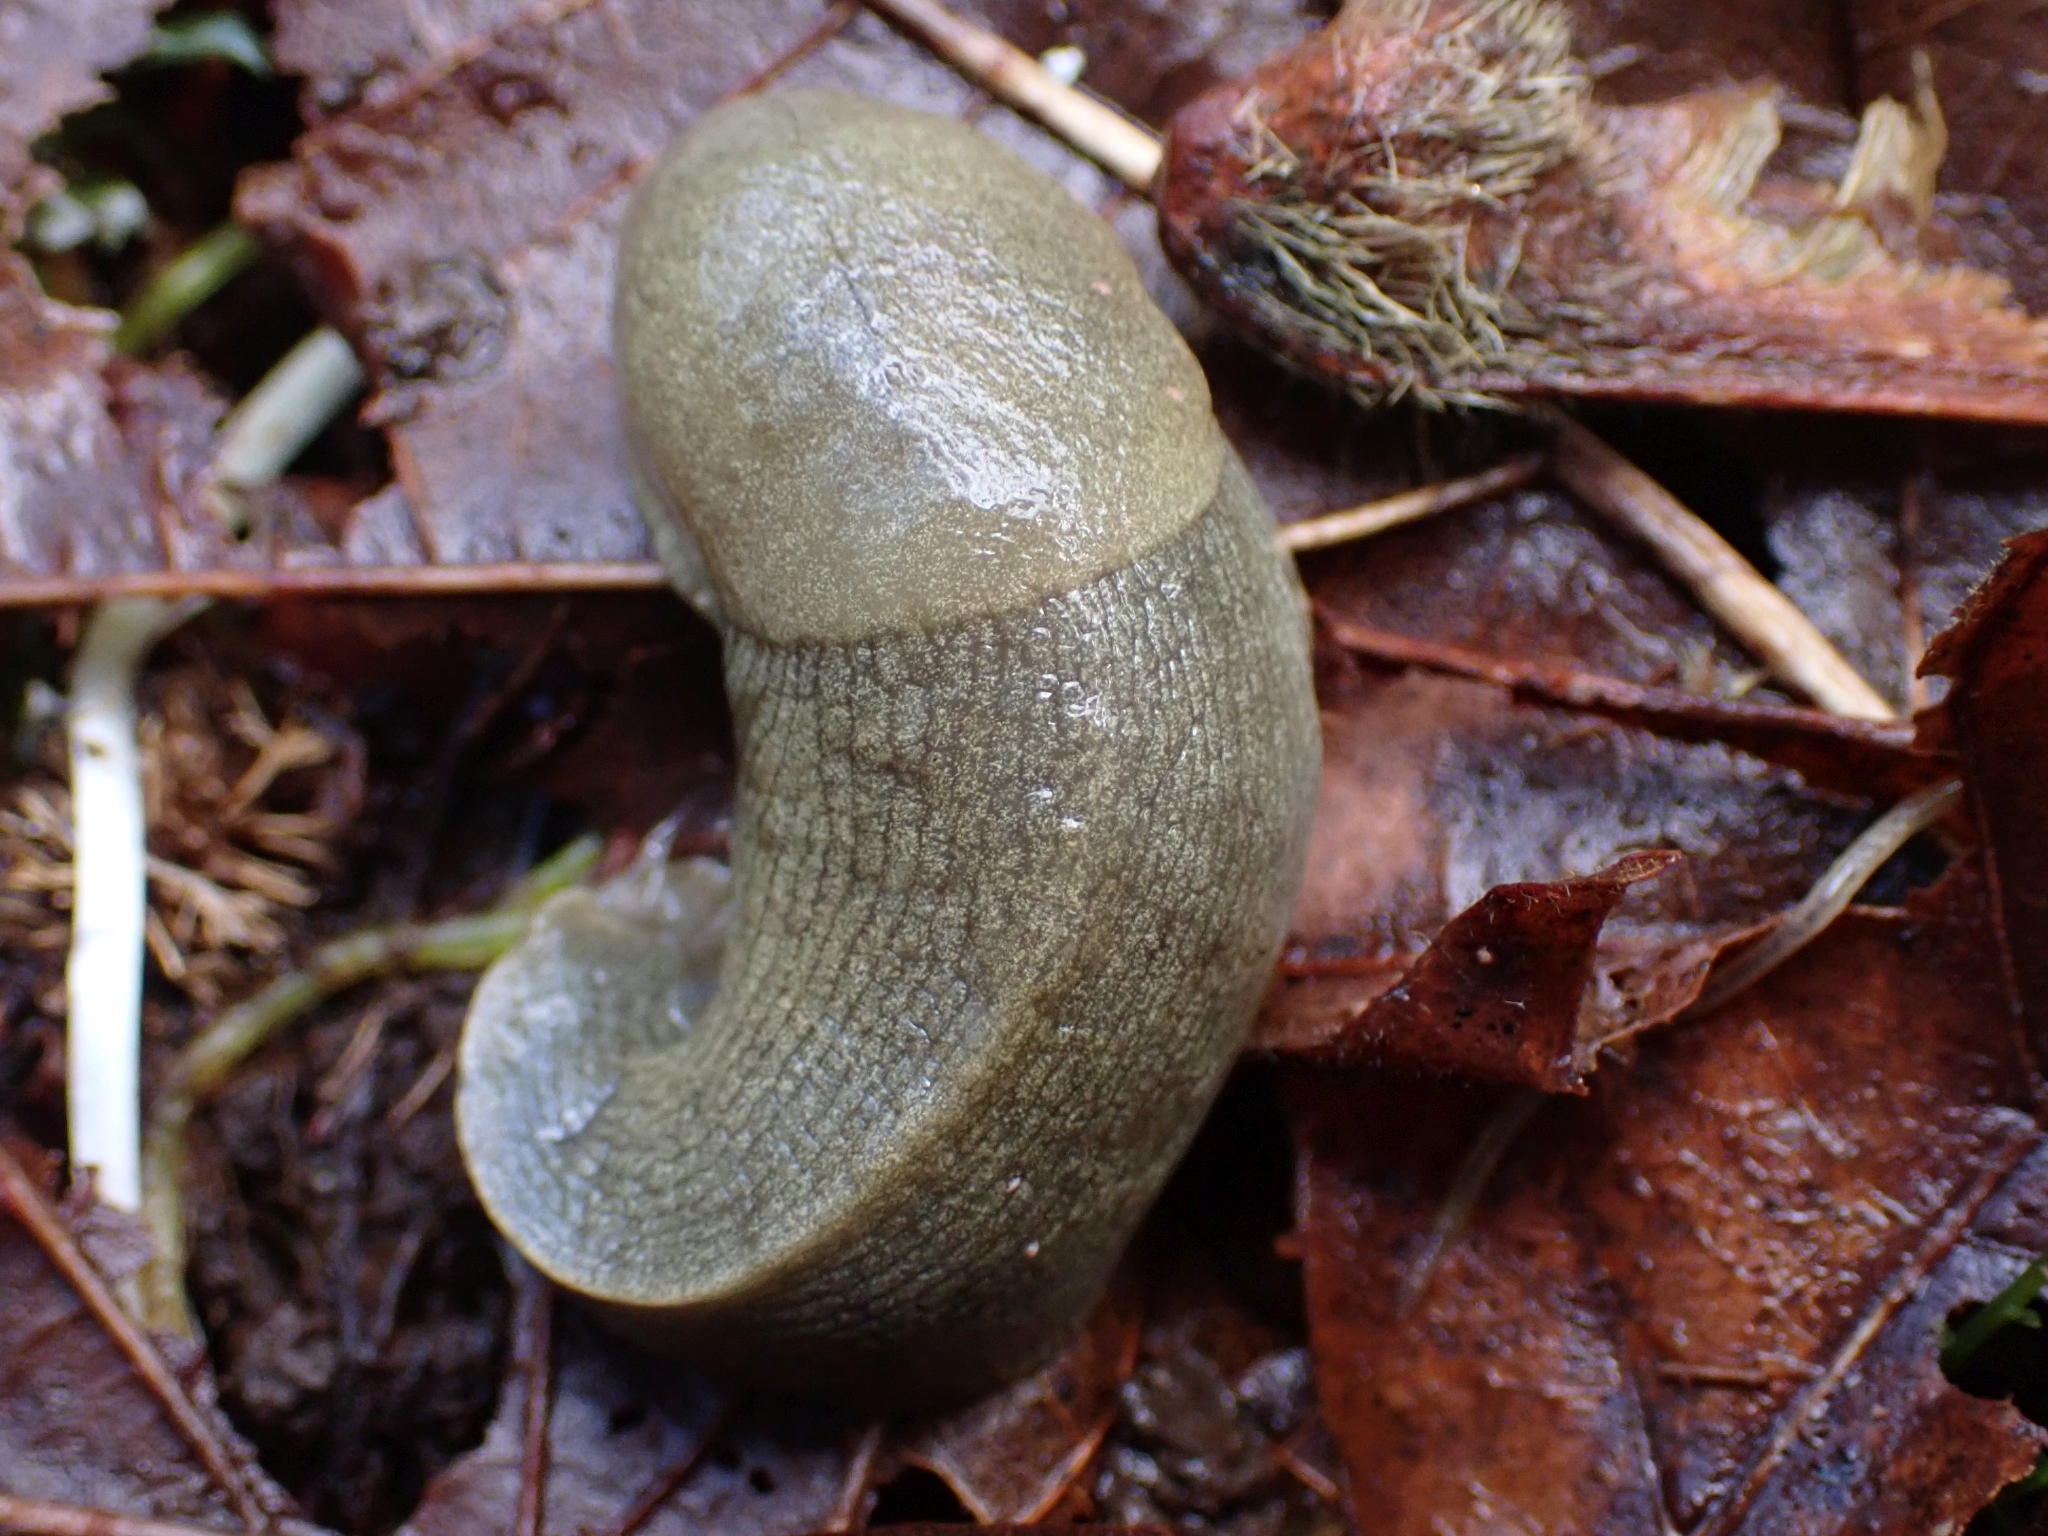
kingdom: Animalia
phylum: Mollusca
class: Gastropoda
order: Stylommatophora
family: Ariolimacidae
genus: Ariolimax
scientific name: Ariolimax columbianus
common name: Pacific banana slug
